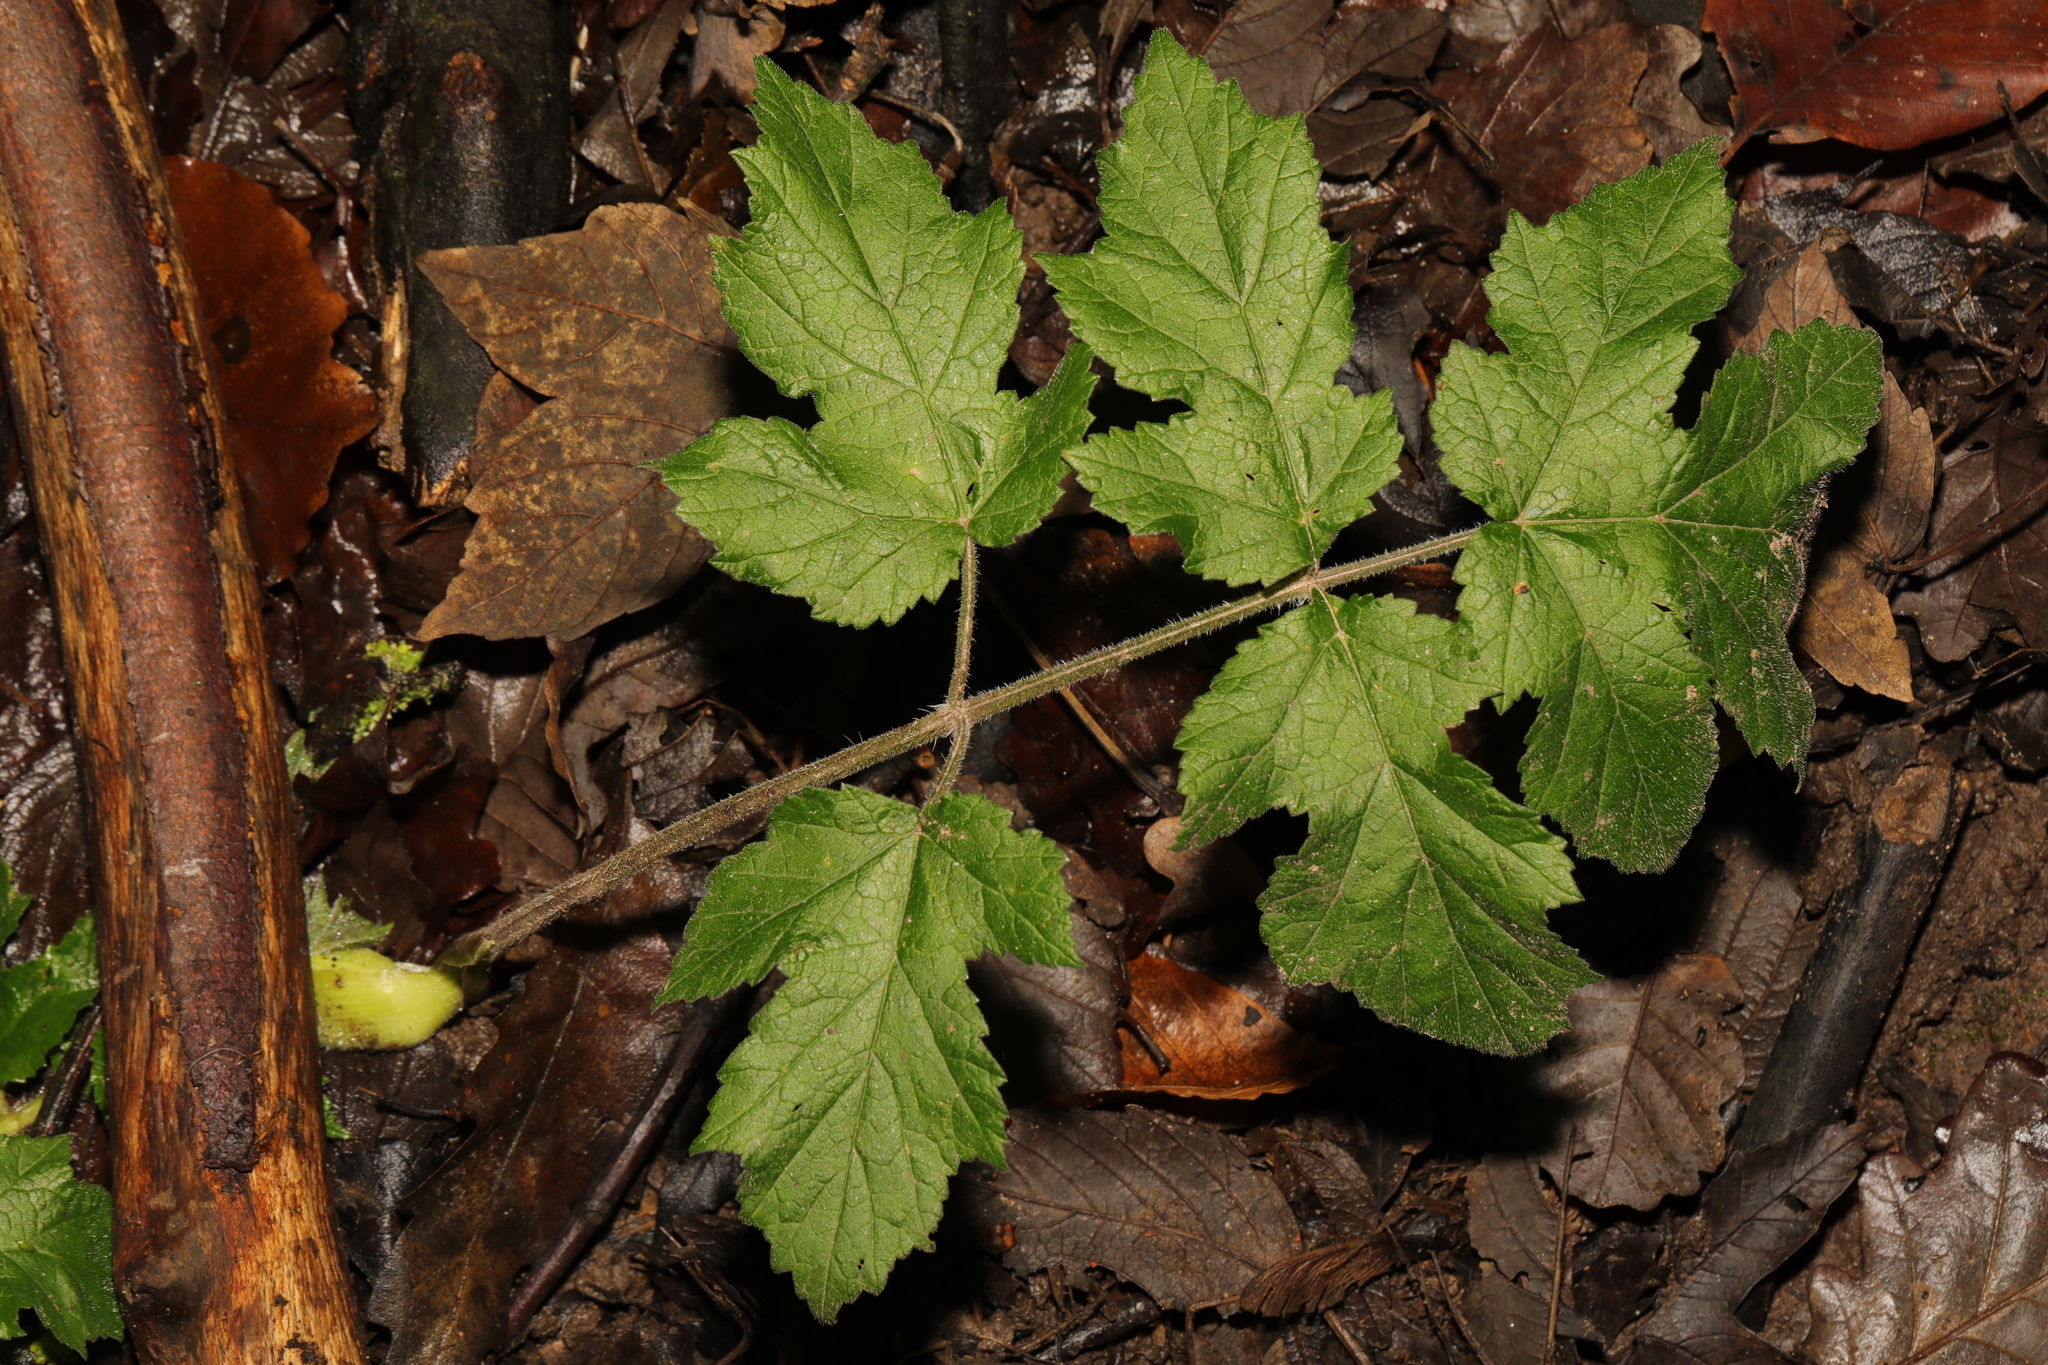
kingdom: Plantae
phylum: Tracheophyta
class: Magnoliopsida
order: Apiales
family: Apiaceae
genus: Heracleum
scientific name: Heracleum sphondylium
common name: Hogweed
